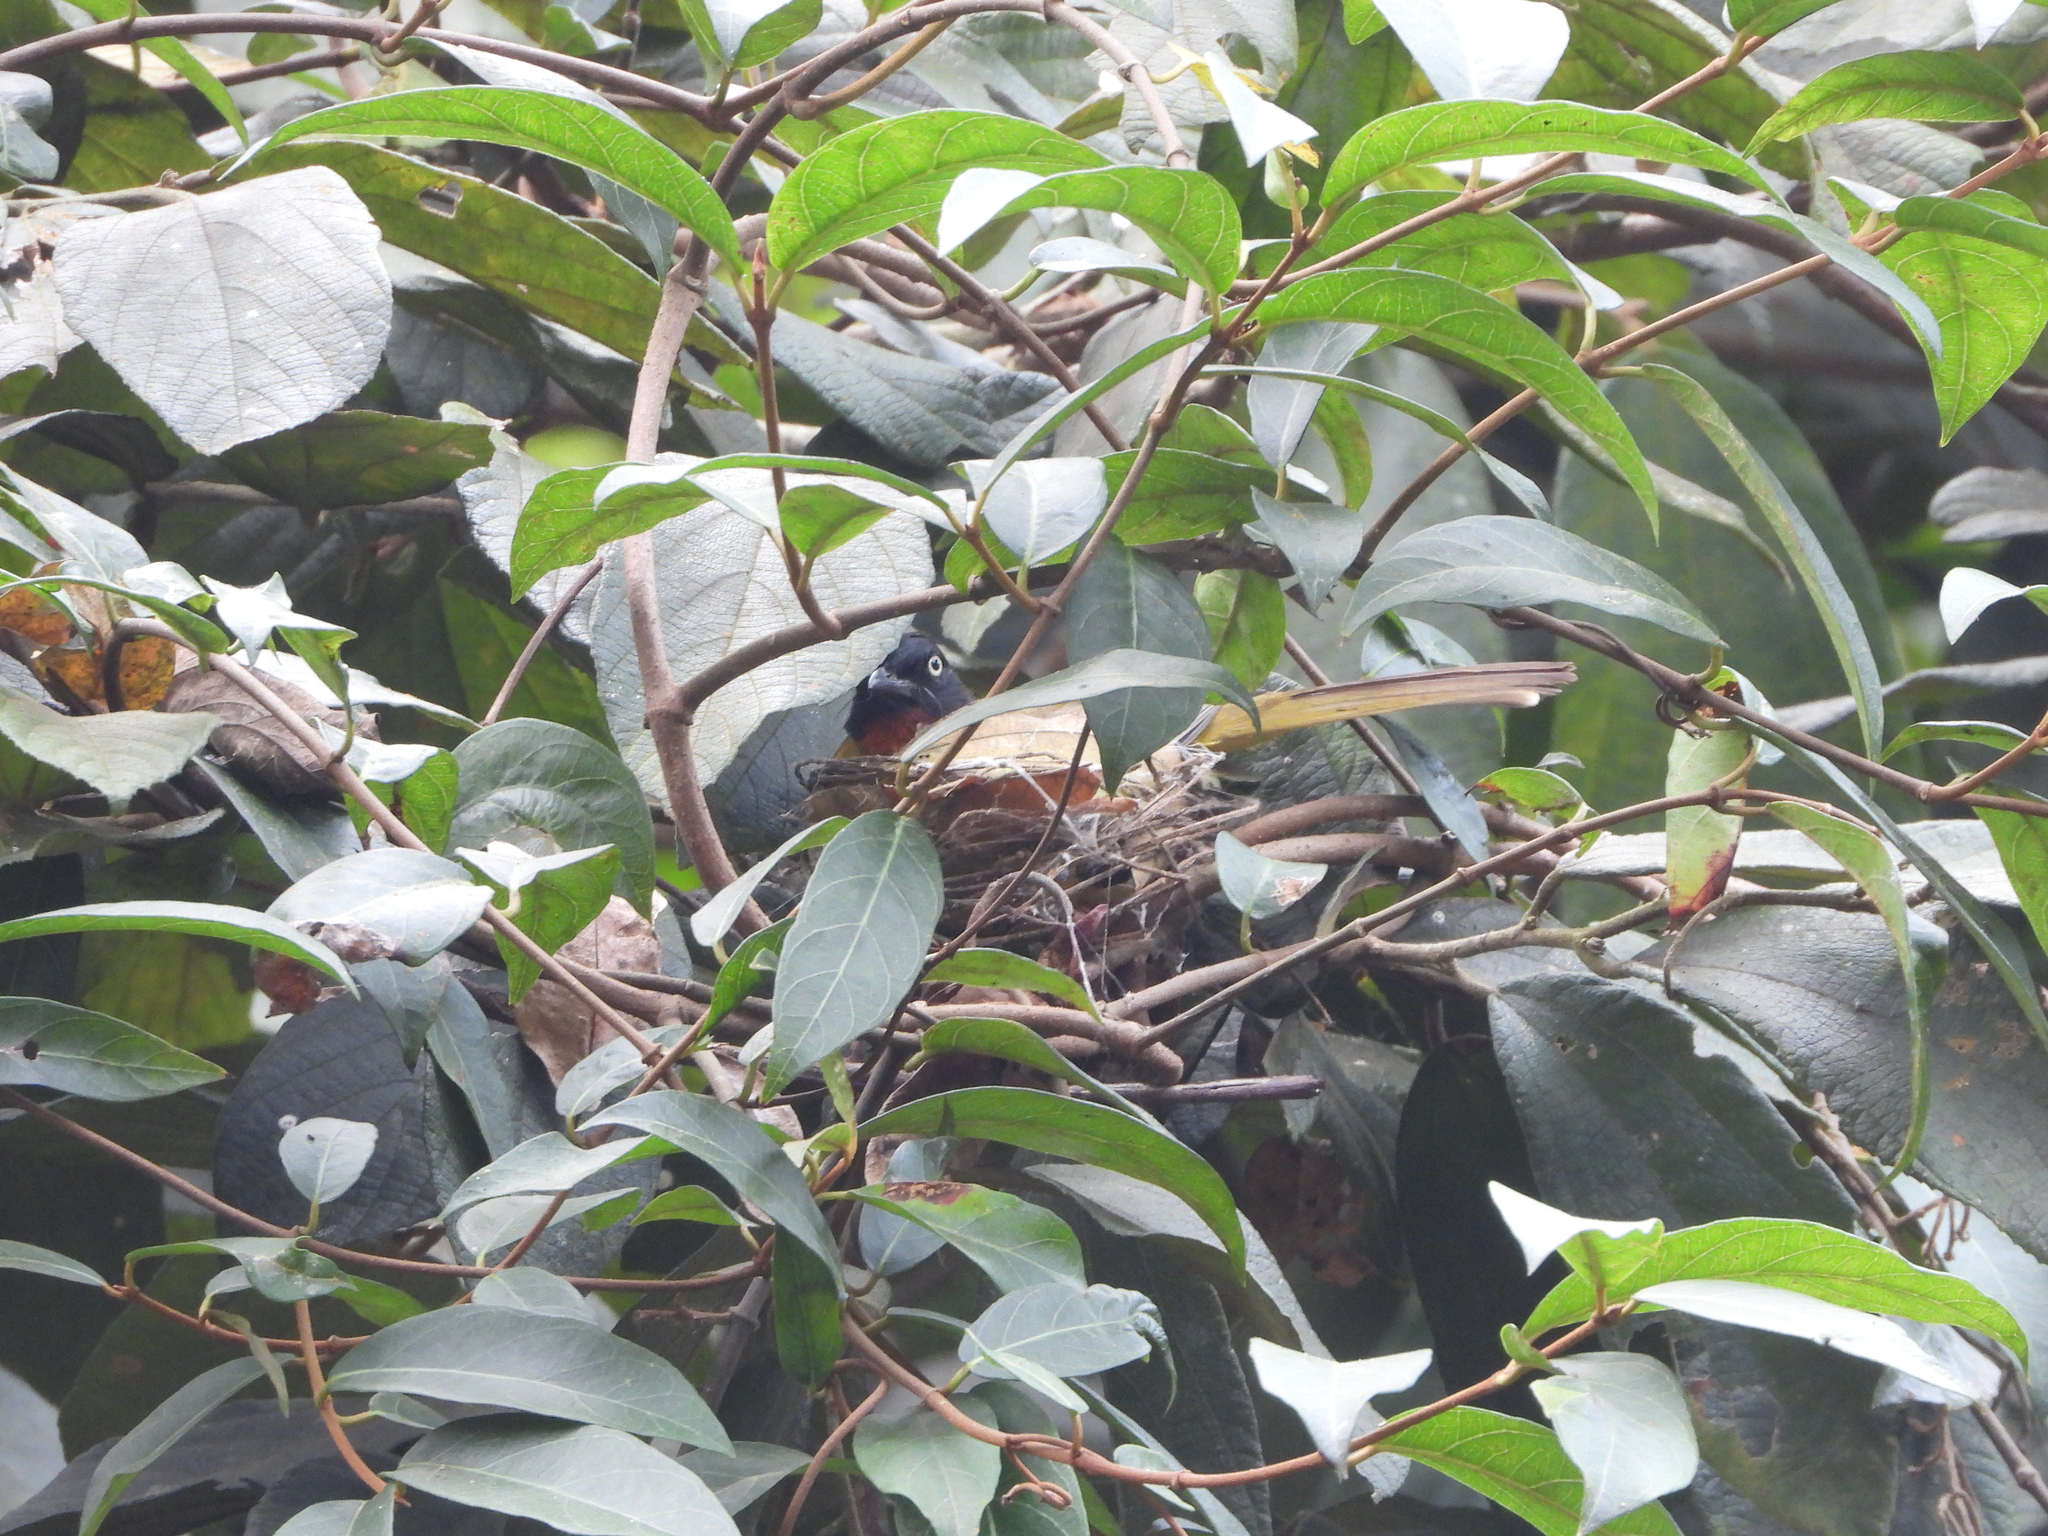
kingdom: Animalia
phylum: Chordata
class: Aves
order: Passeriformes
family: Pycnonotidae
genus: Pycnonotus
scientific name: Pycnonotus flaviventris
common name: Black-crested bulbul
